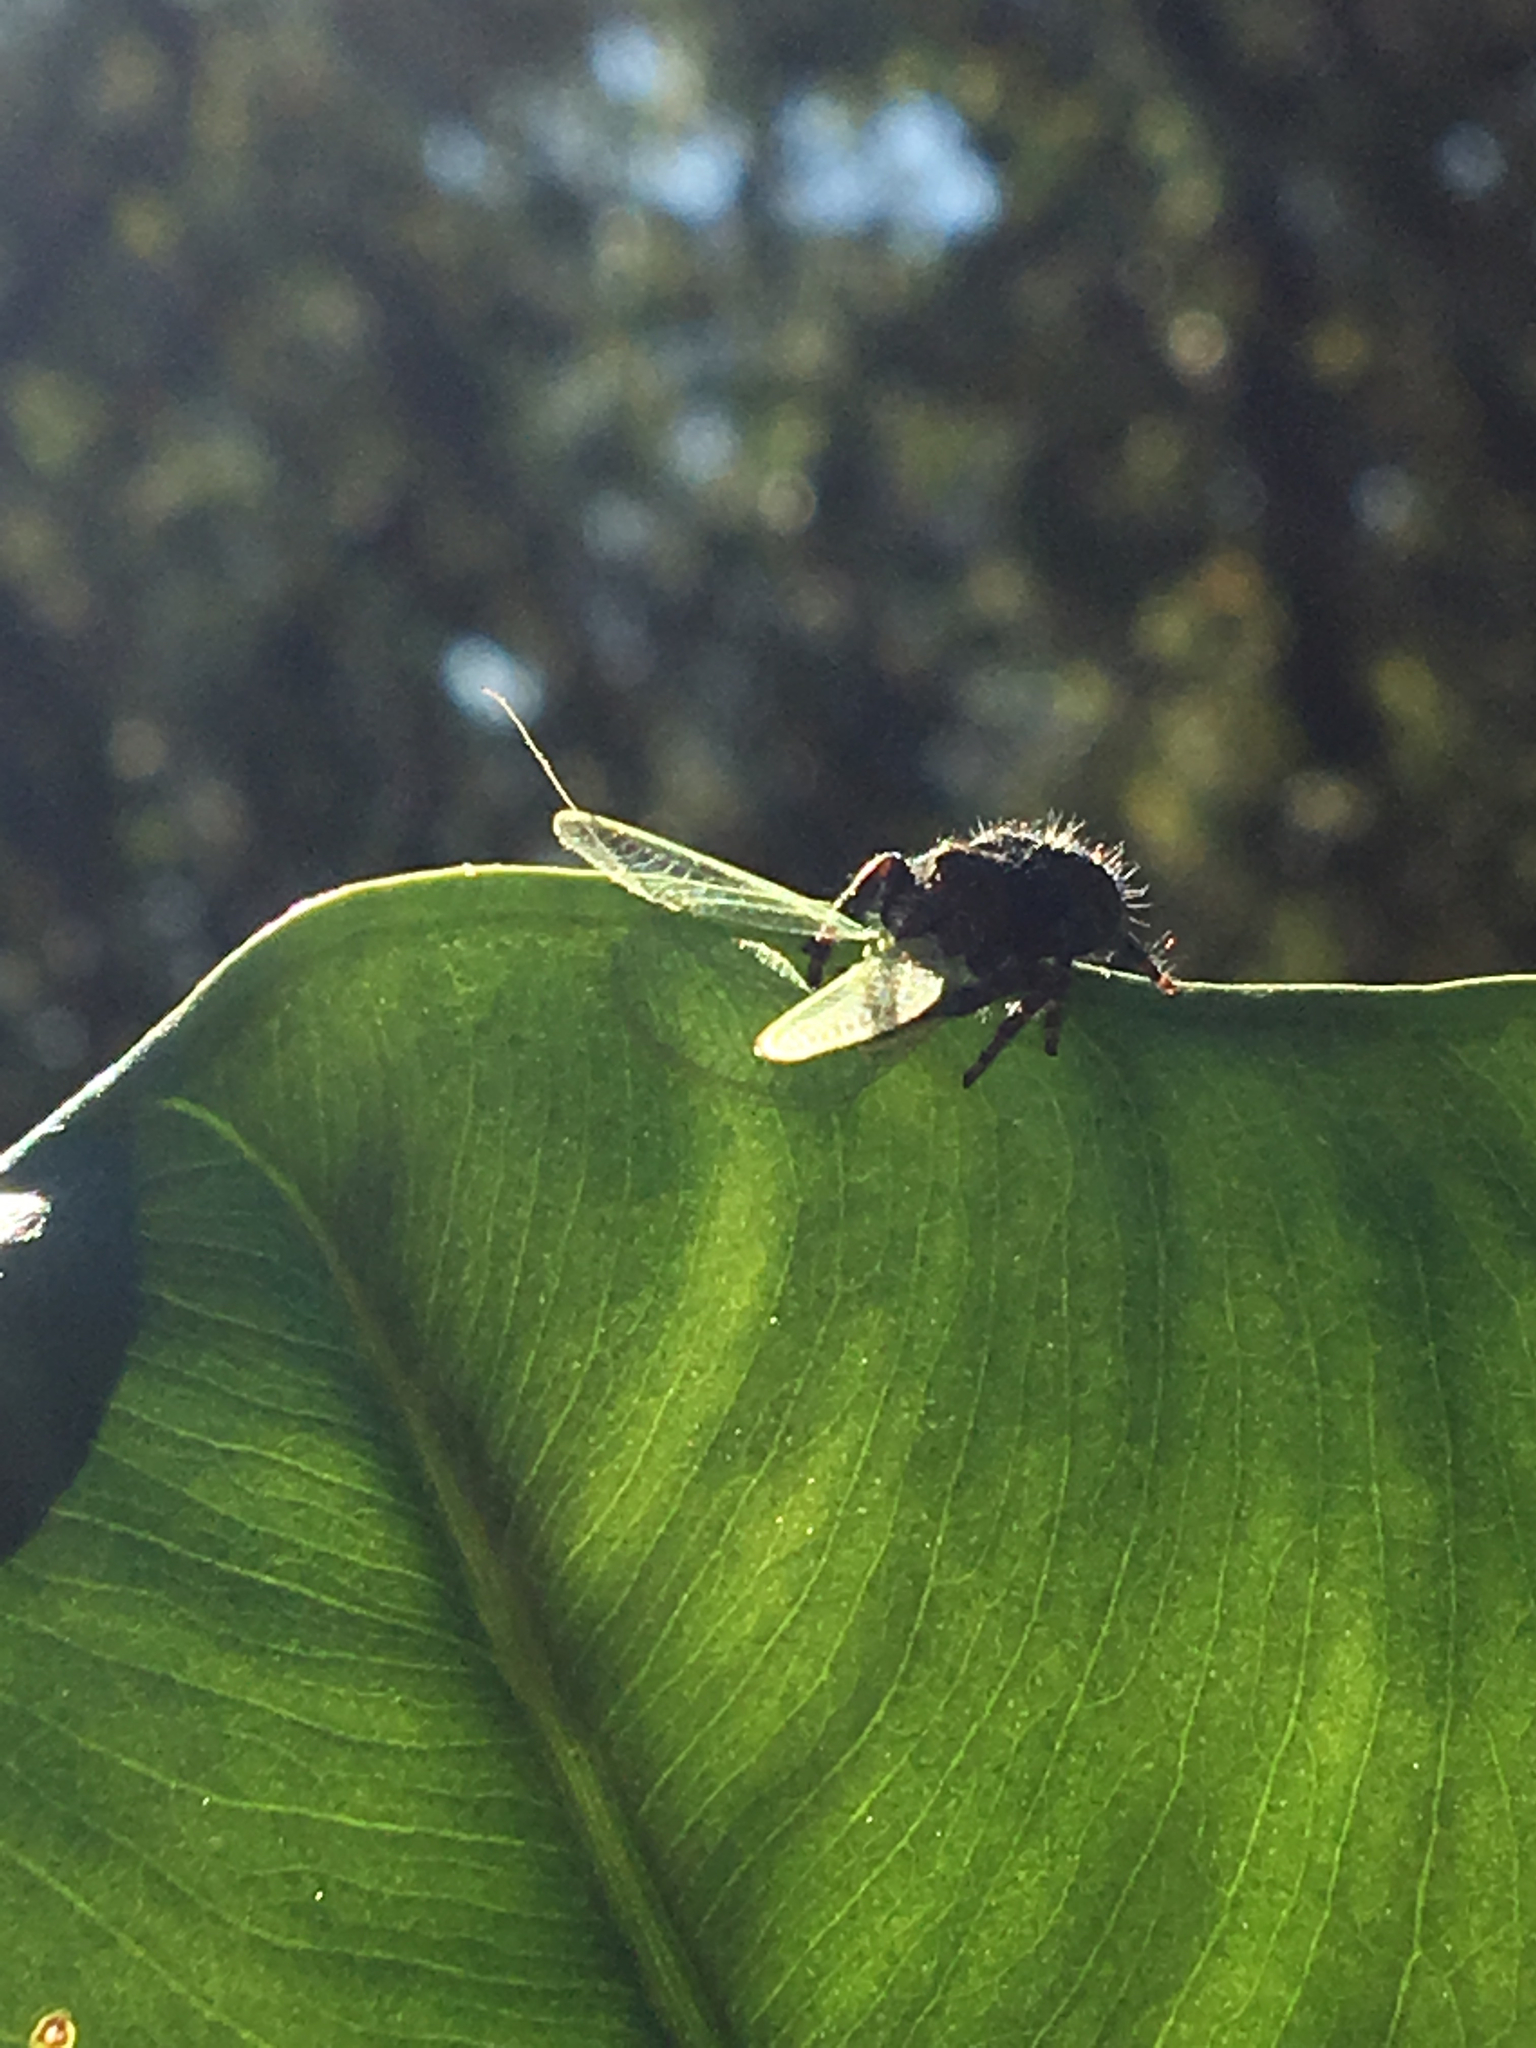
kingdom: Animalia
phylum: Arthropoda
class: Arachnida
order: Araneae
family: Salticidae
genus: Phidippus
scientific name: Phidippus audax
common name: Bold jumper
